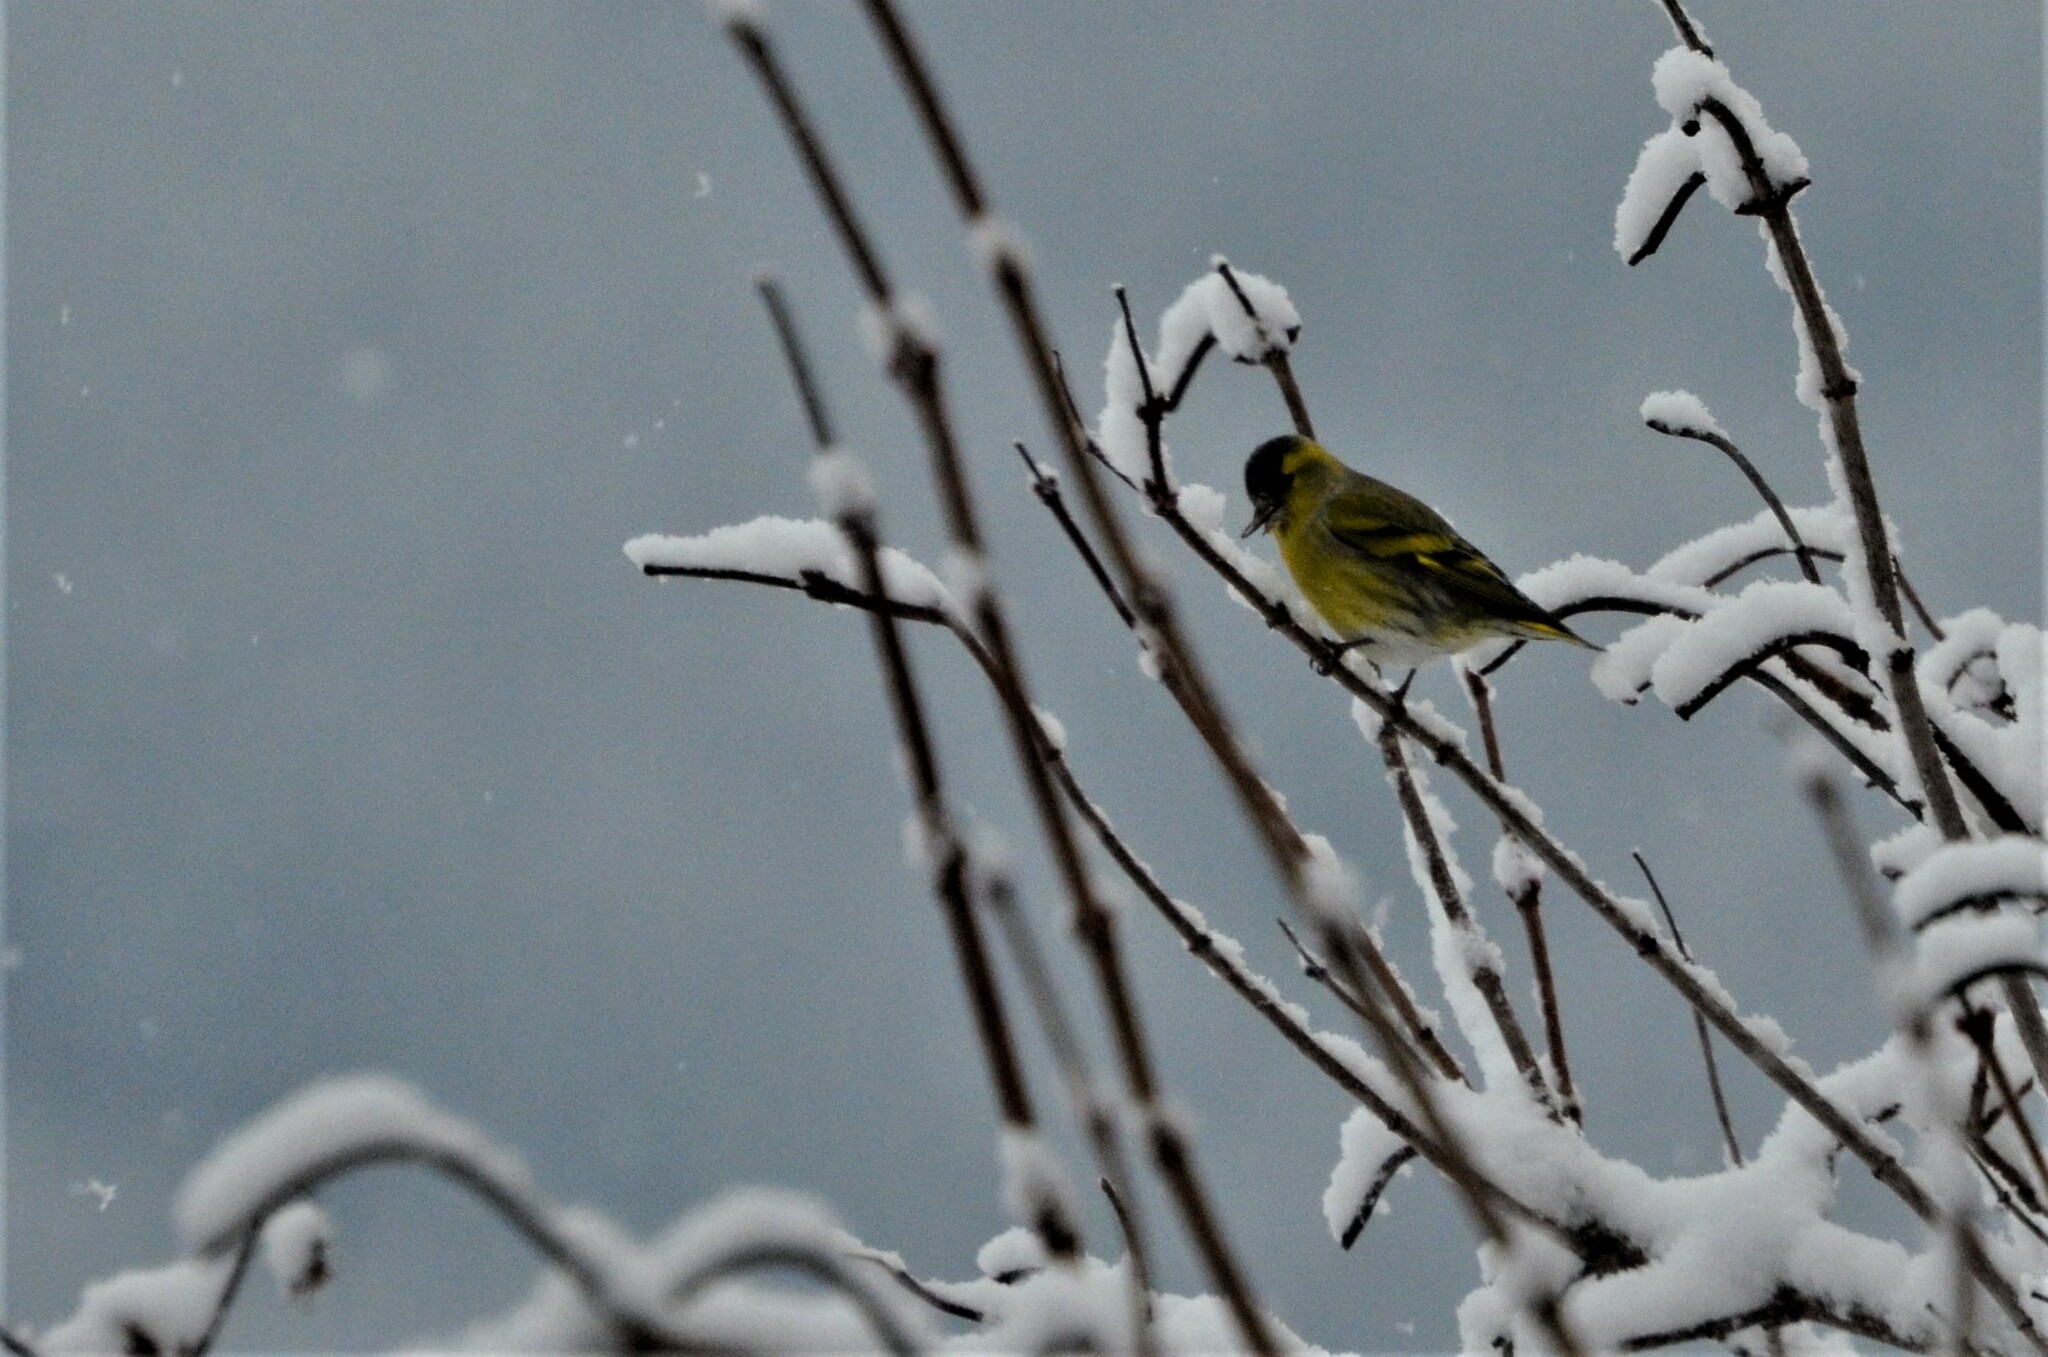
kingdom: Animalia
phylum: Chordata
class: Aves
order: Passeriformes
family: Fringillidae
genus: Spinus
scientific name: Spinus spinus
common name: Eurasian siskin
